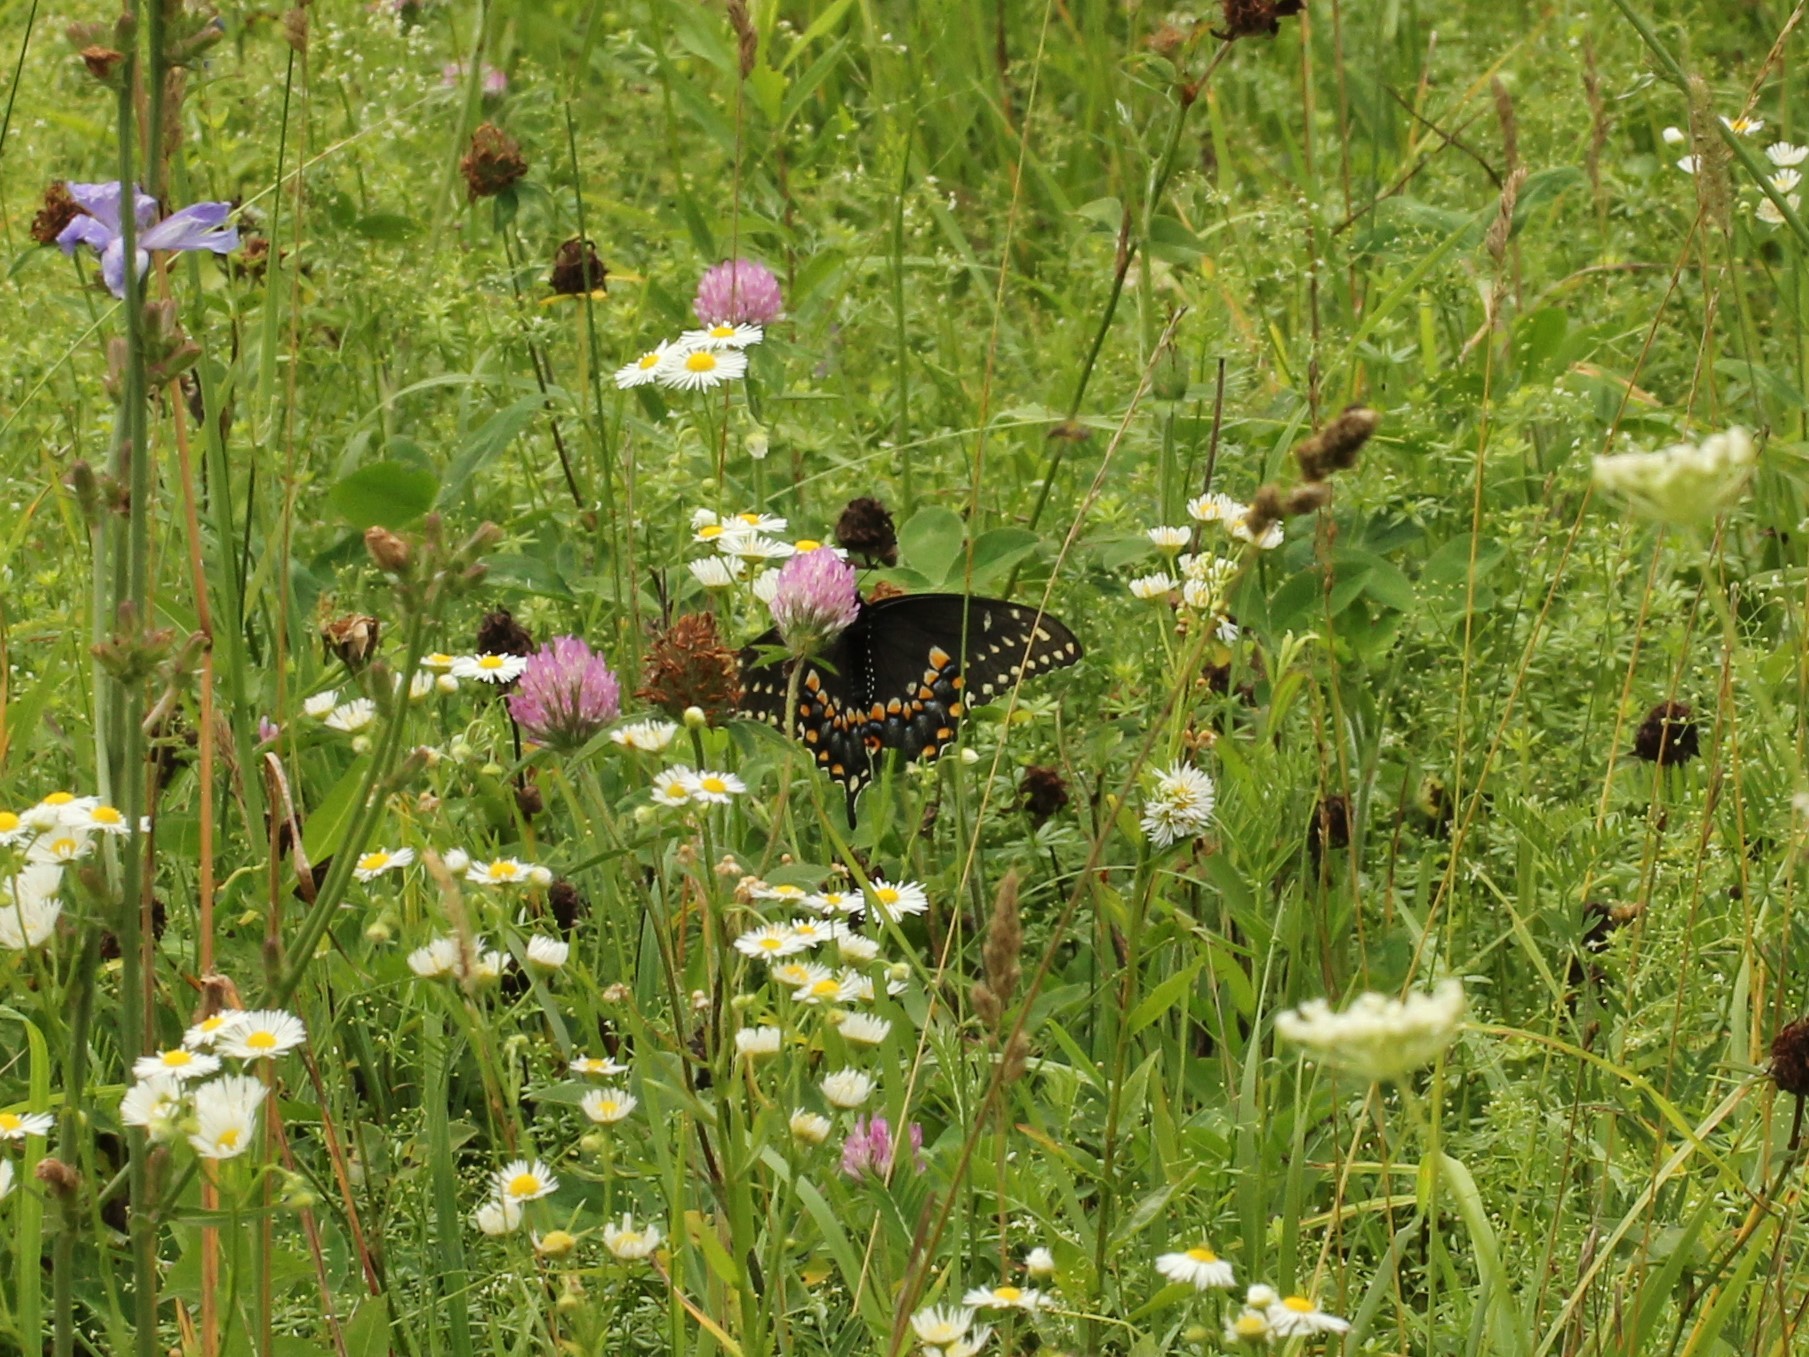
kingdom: Animalia
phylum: Arthropoda
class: Insecta
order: Lepidoptera
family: Papilionidae
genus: Papilio
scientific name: Papilio polyxenes
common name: Black swallowtail
